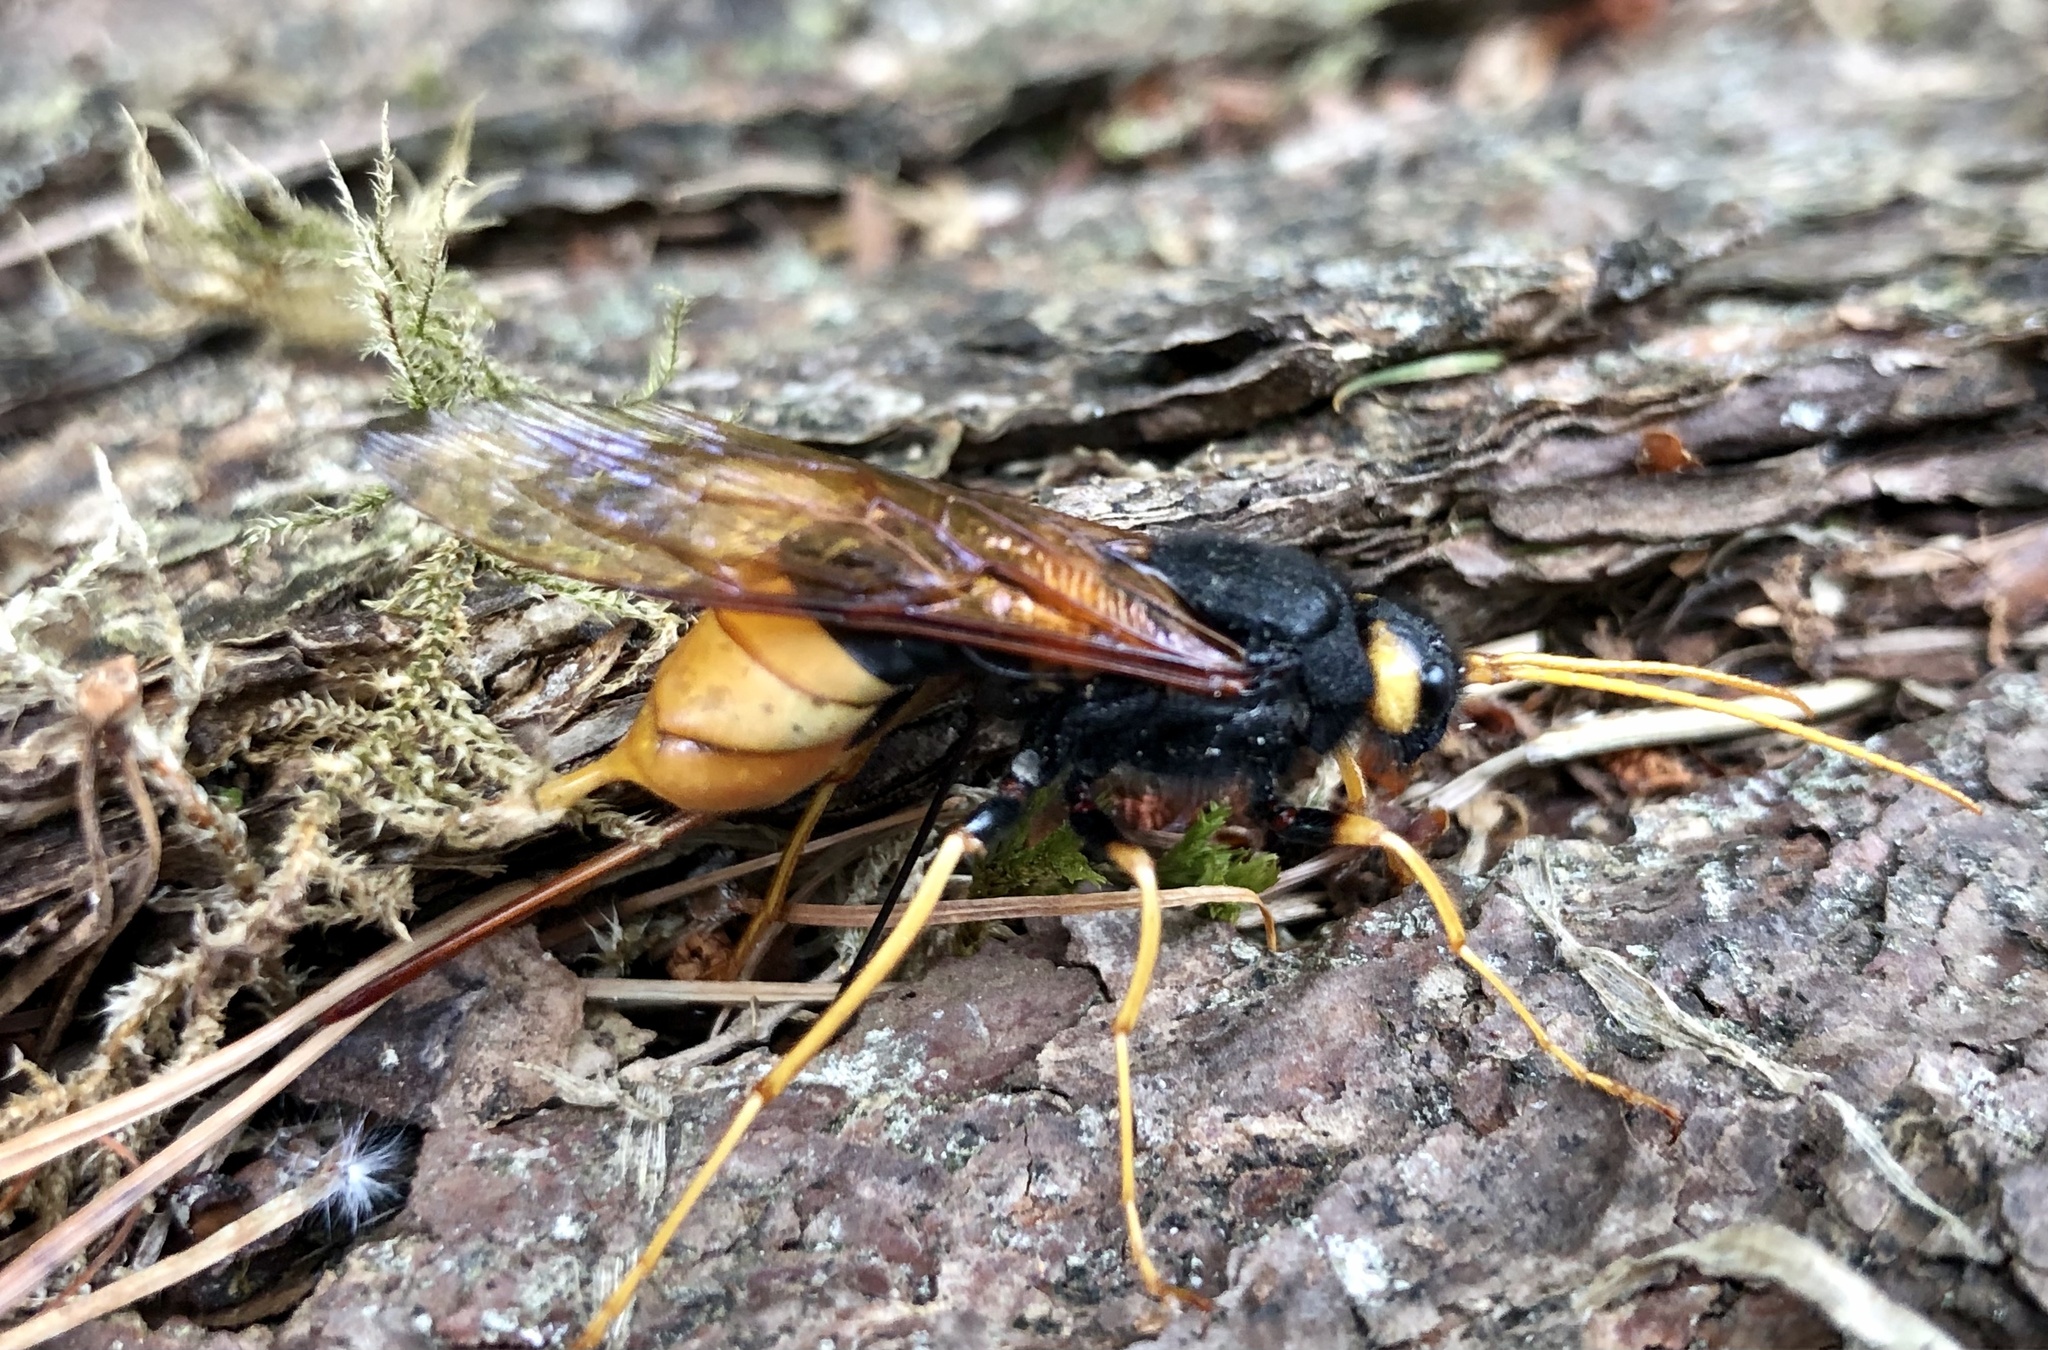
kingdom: Animalia
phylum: Arthropoda
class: Insecta
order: Hymenoptera
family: Siricidae
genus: Urocerus
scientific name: Urocerus gigas
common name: Giant woodwasp
